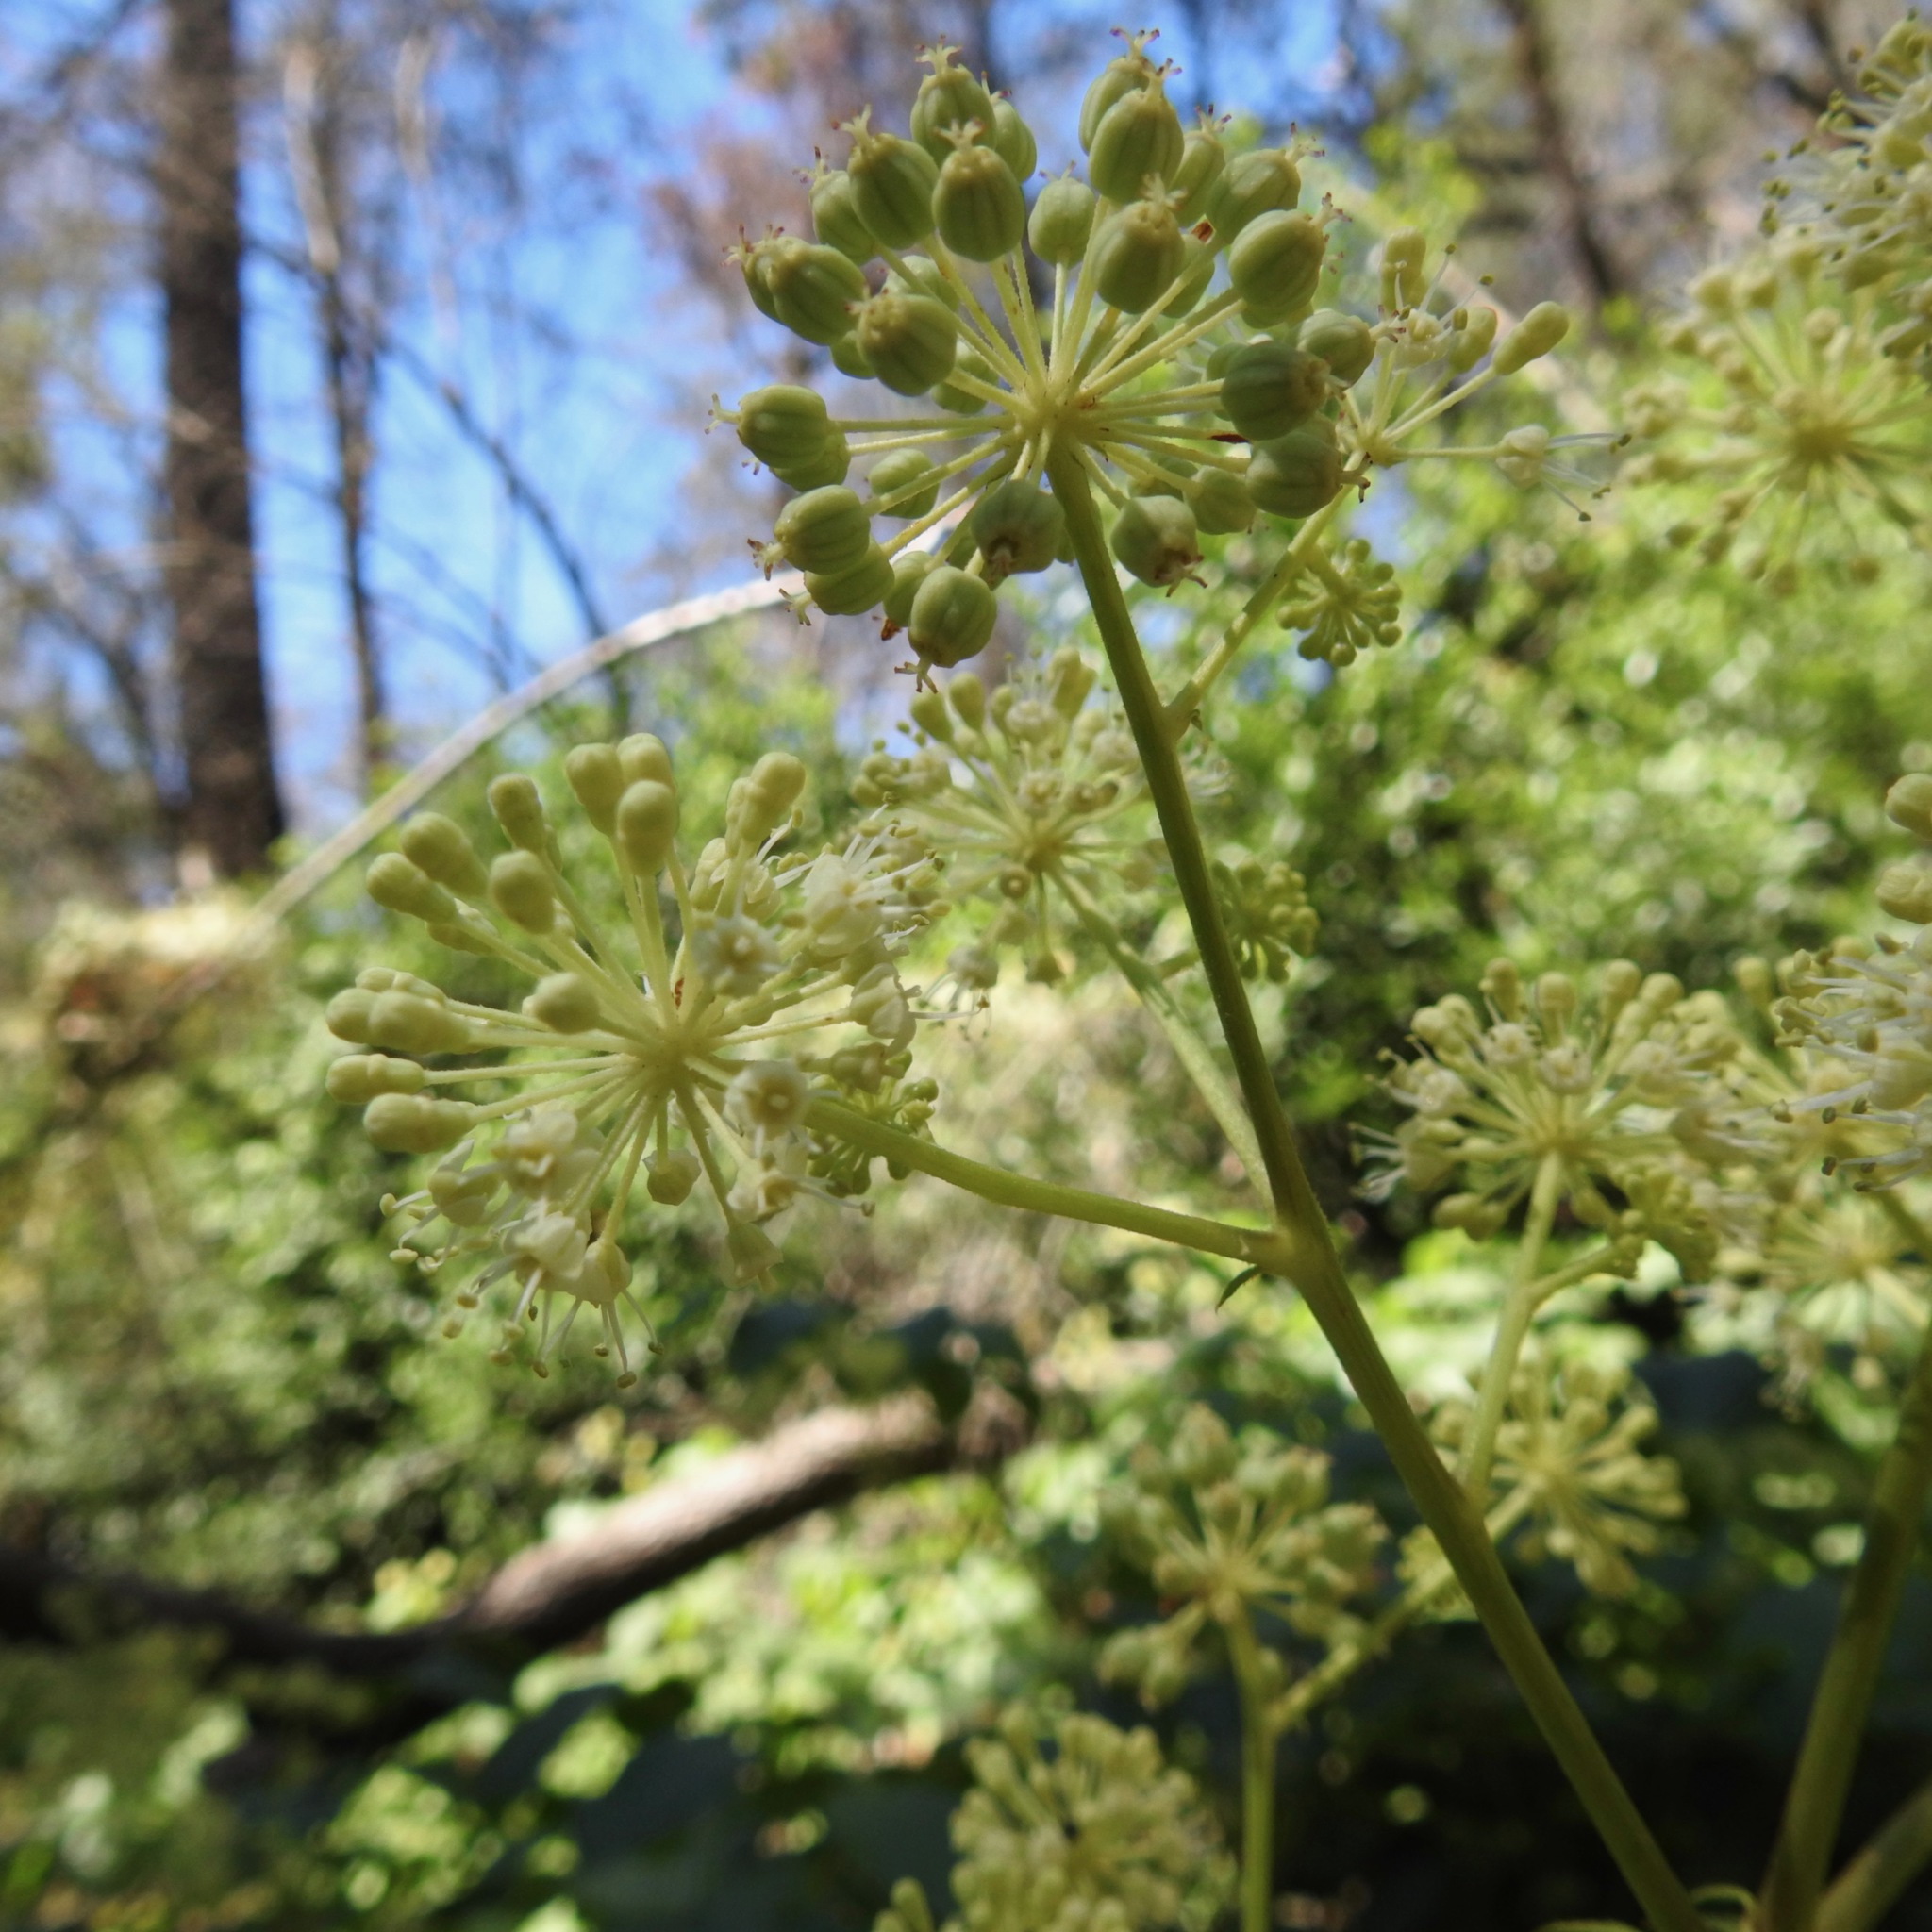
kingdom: Plantae
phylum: Tracheophyta
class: Magnoliopsida
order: Apiales
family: Araliaceae
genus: Aralia
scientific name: Aralia californica
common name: California-ginseng
